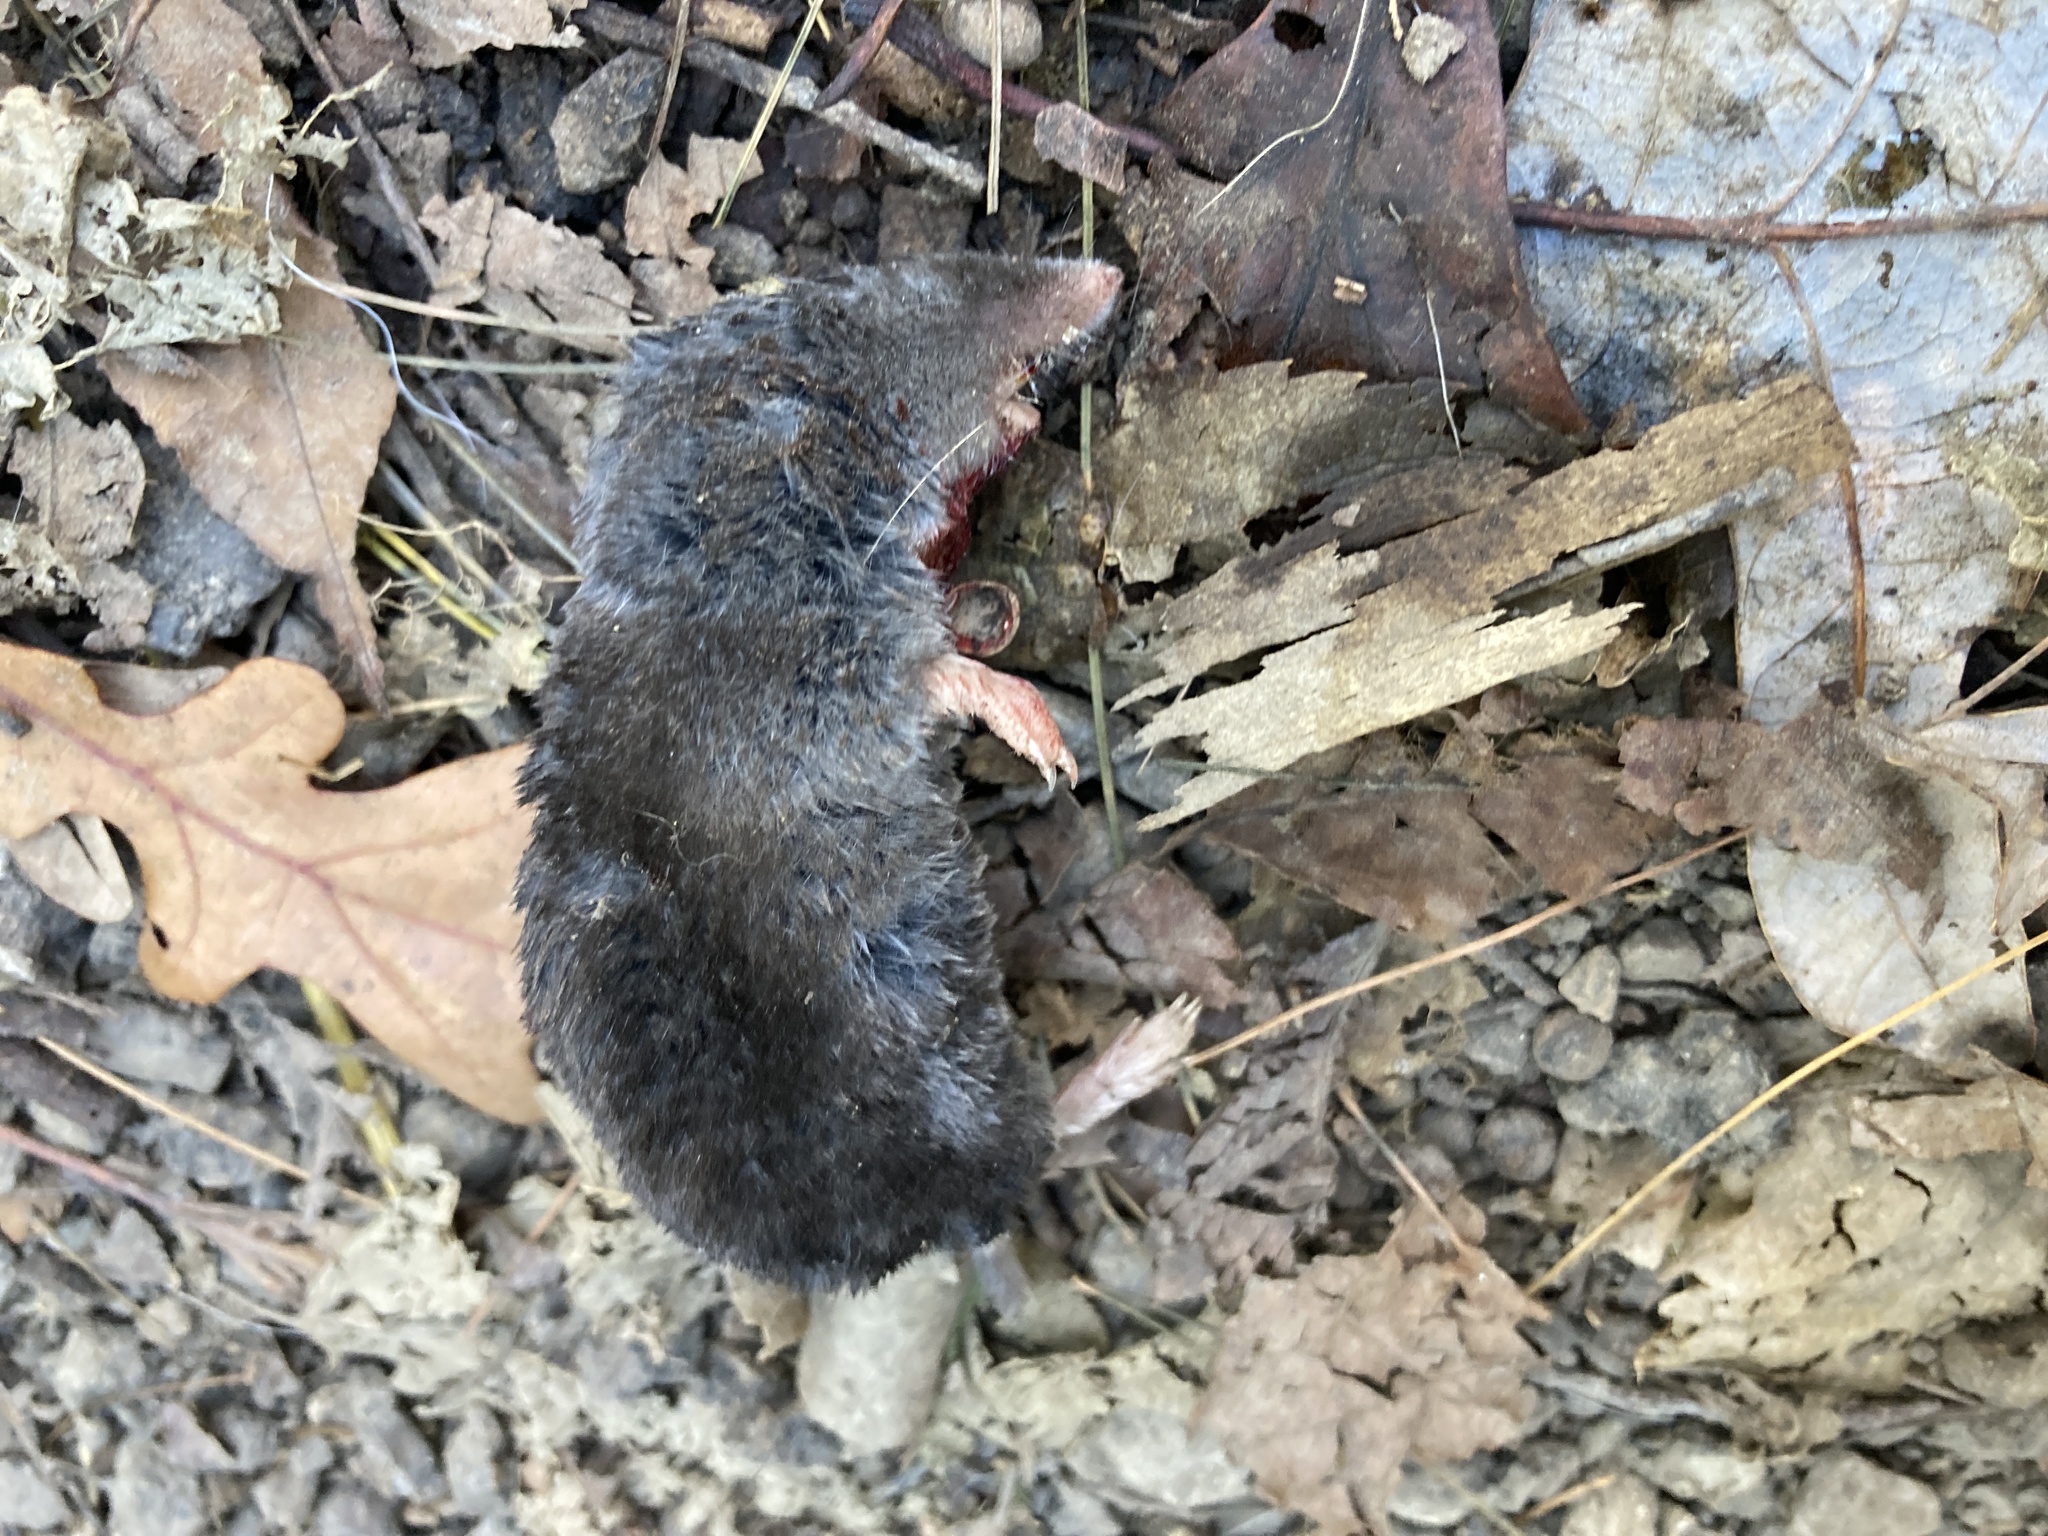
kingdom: Animalia
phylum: Chordata
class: Mammalia
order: Soricomorpha
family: Soricidae
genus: Blarina
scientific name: Blarina brevicauda
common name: Northern short-tailed shrew
